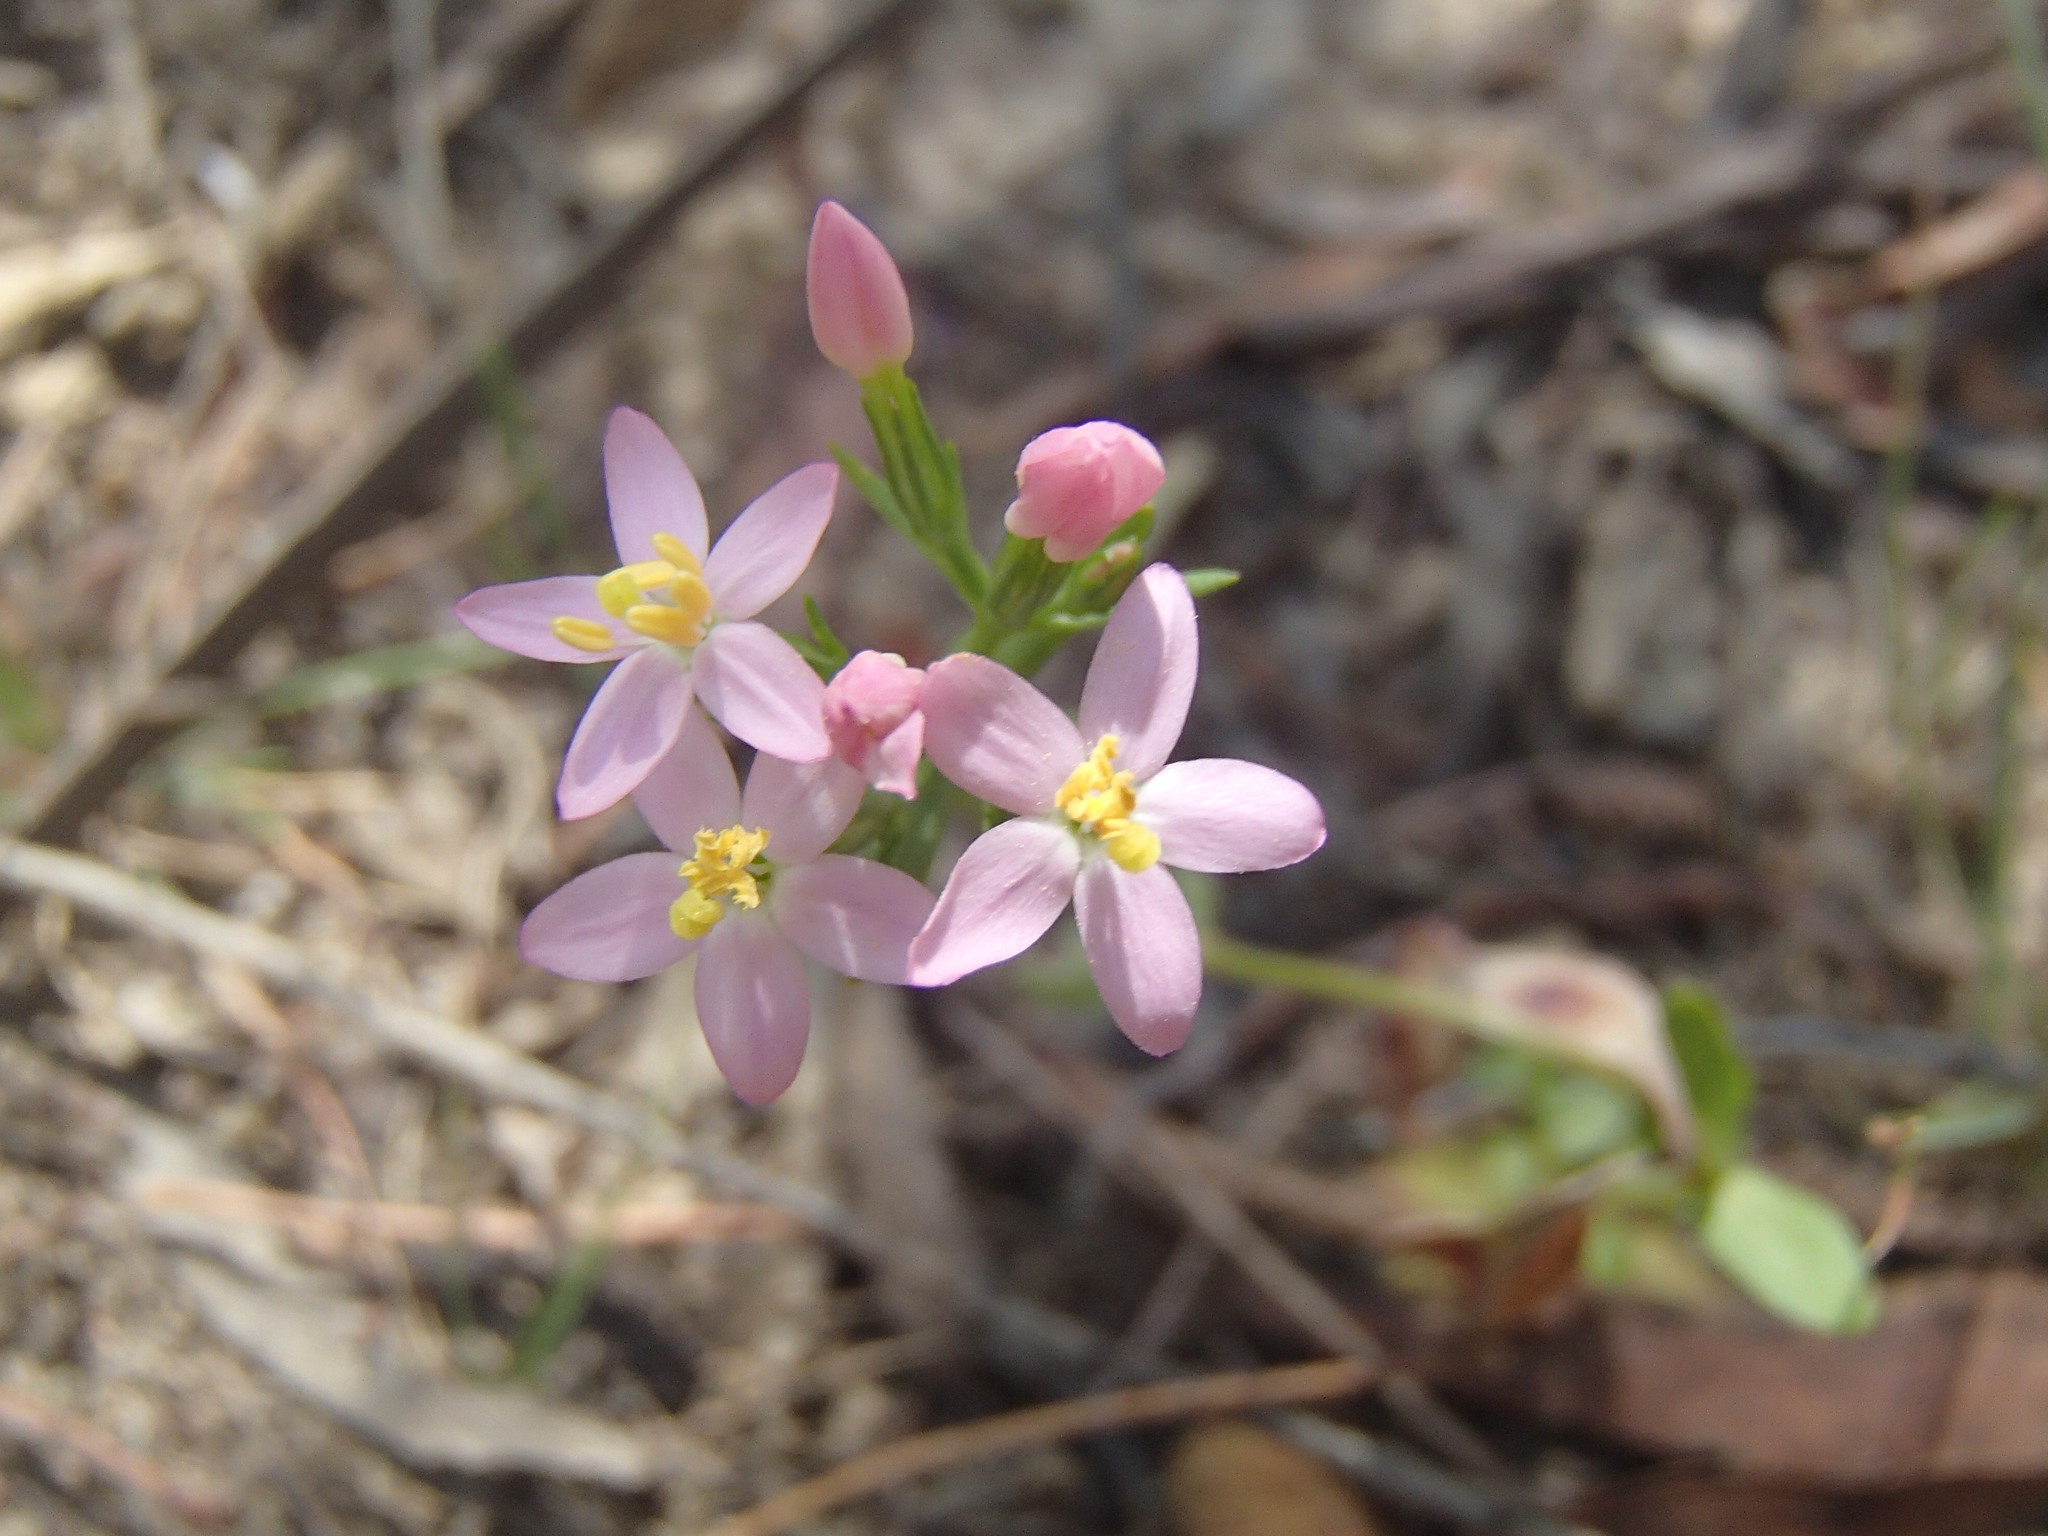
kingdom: Plantae
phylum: Tracheophyta
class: Magnoliopsida
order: Gentianales
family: Gentianaceae
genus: Centaurium
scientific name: Centaurium erythraea
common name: Common centaury
